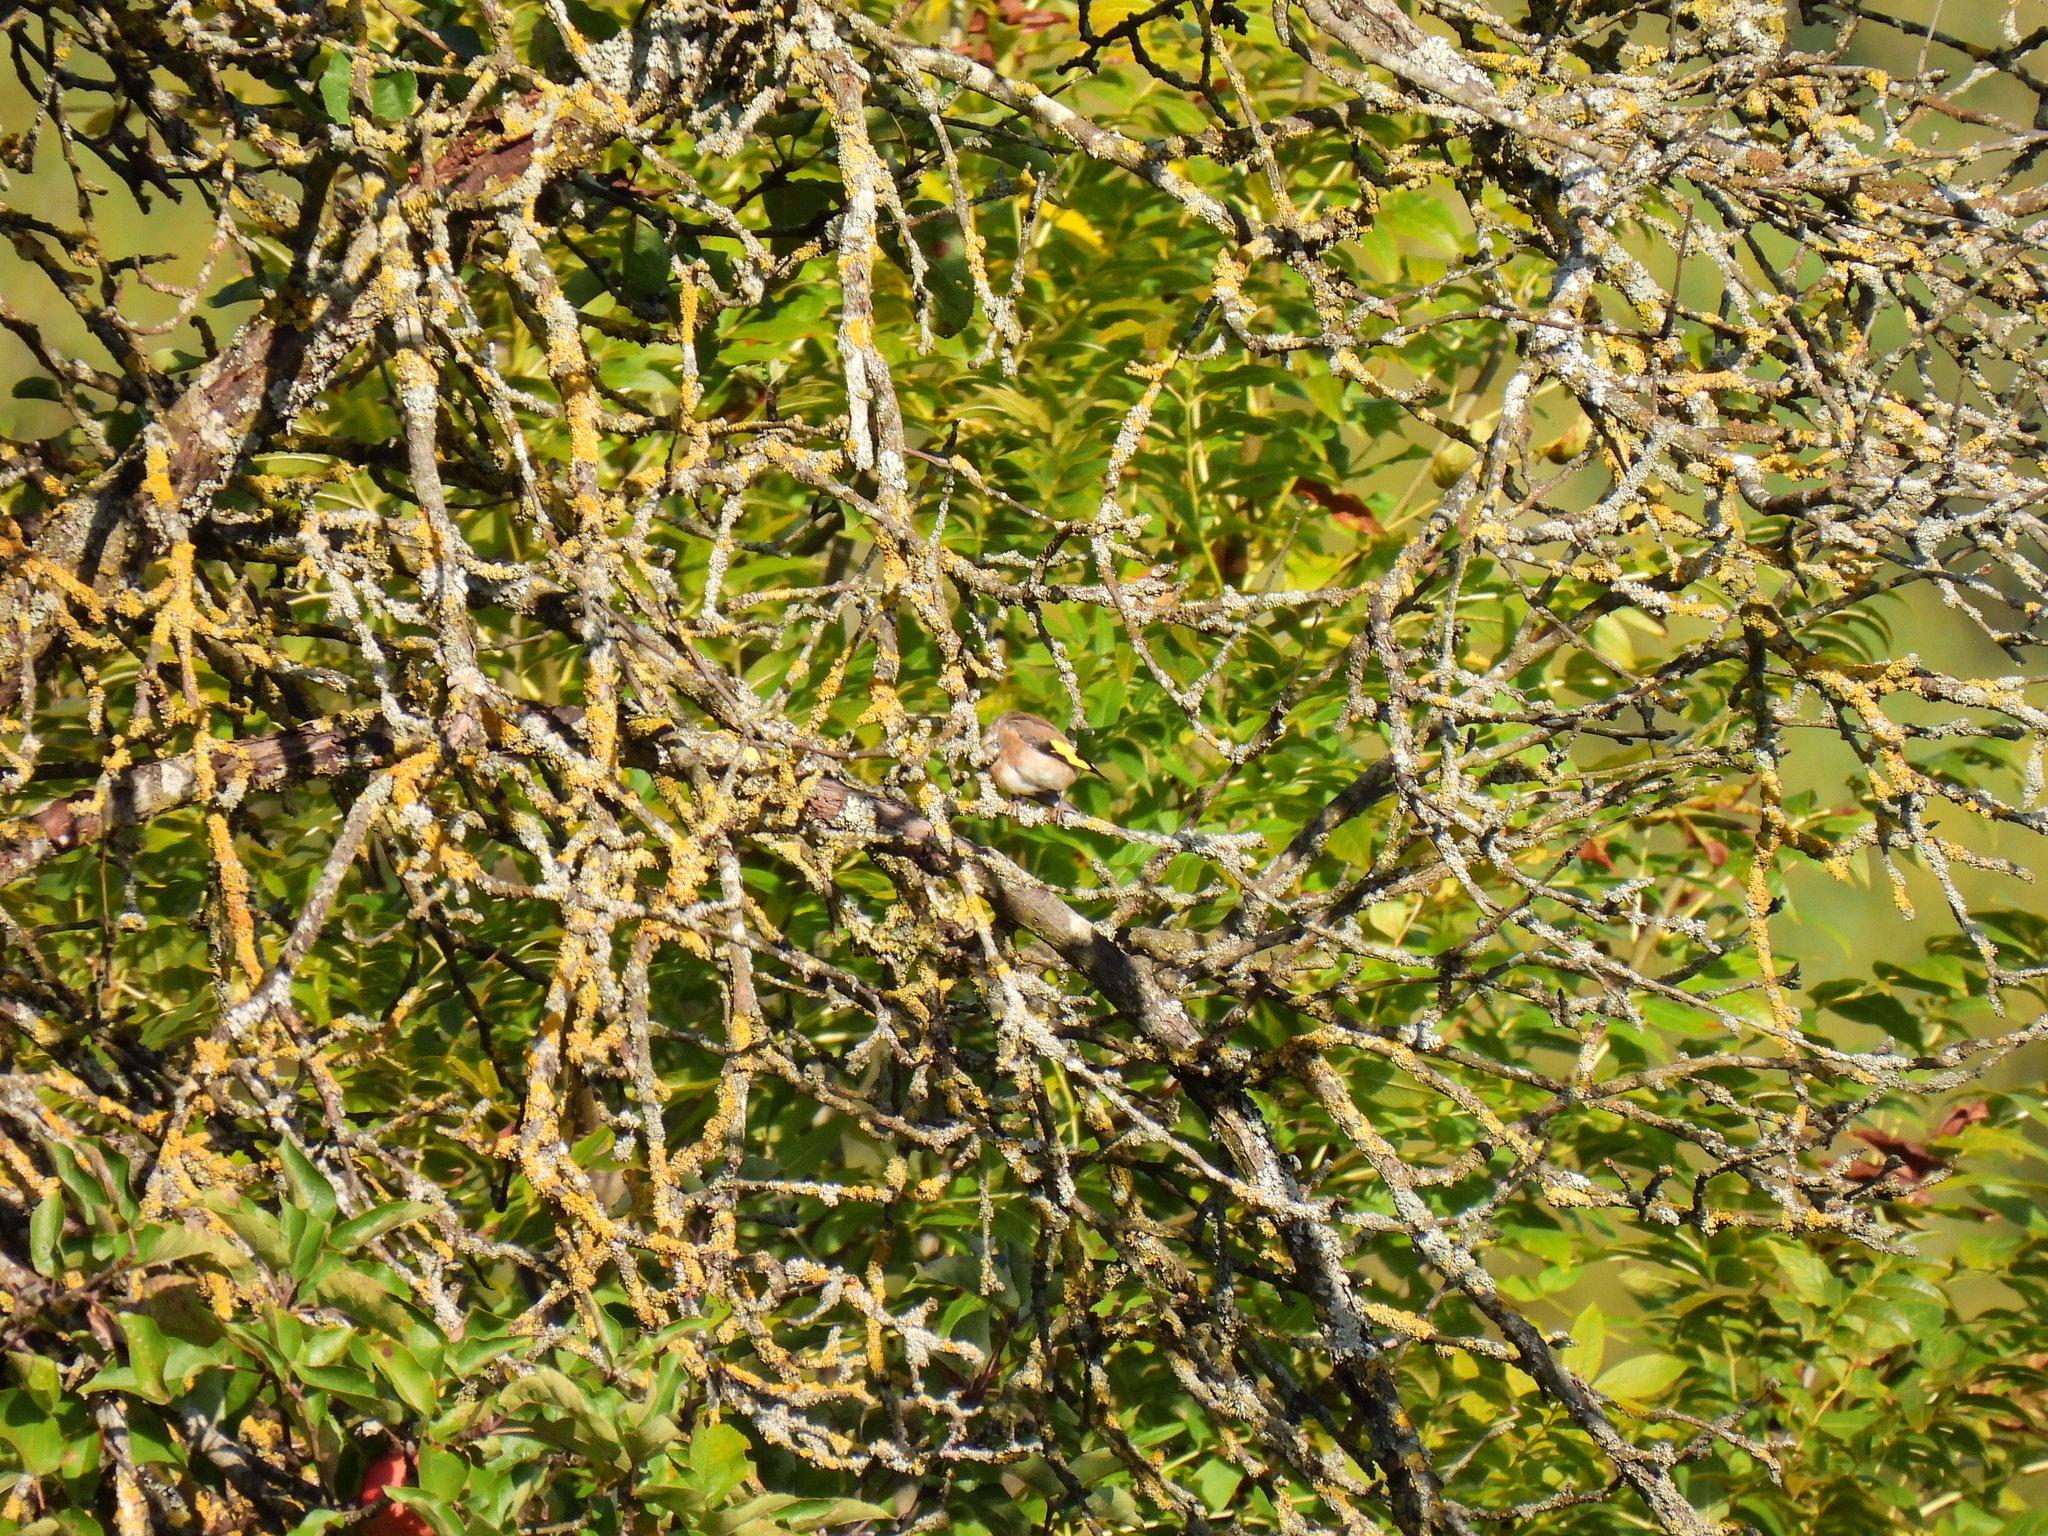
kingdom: Animalia
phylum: Chordata
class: Aves
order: Passeriformes
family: Fringillidae
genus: Carduelis
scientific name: Carduelis carduelis
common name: European goldfinch
